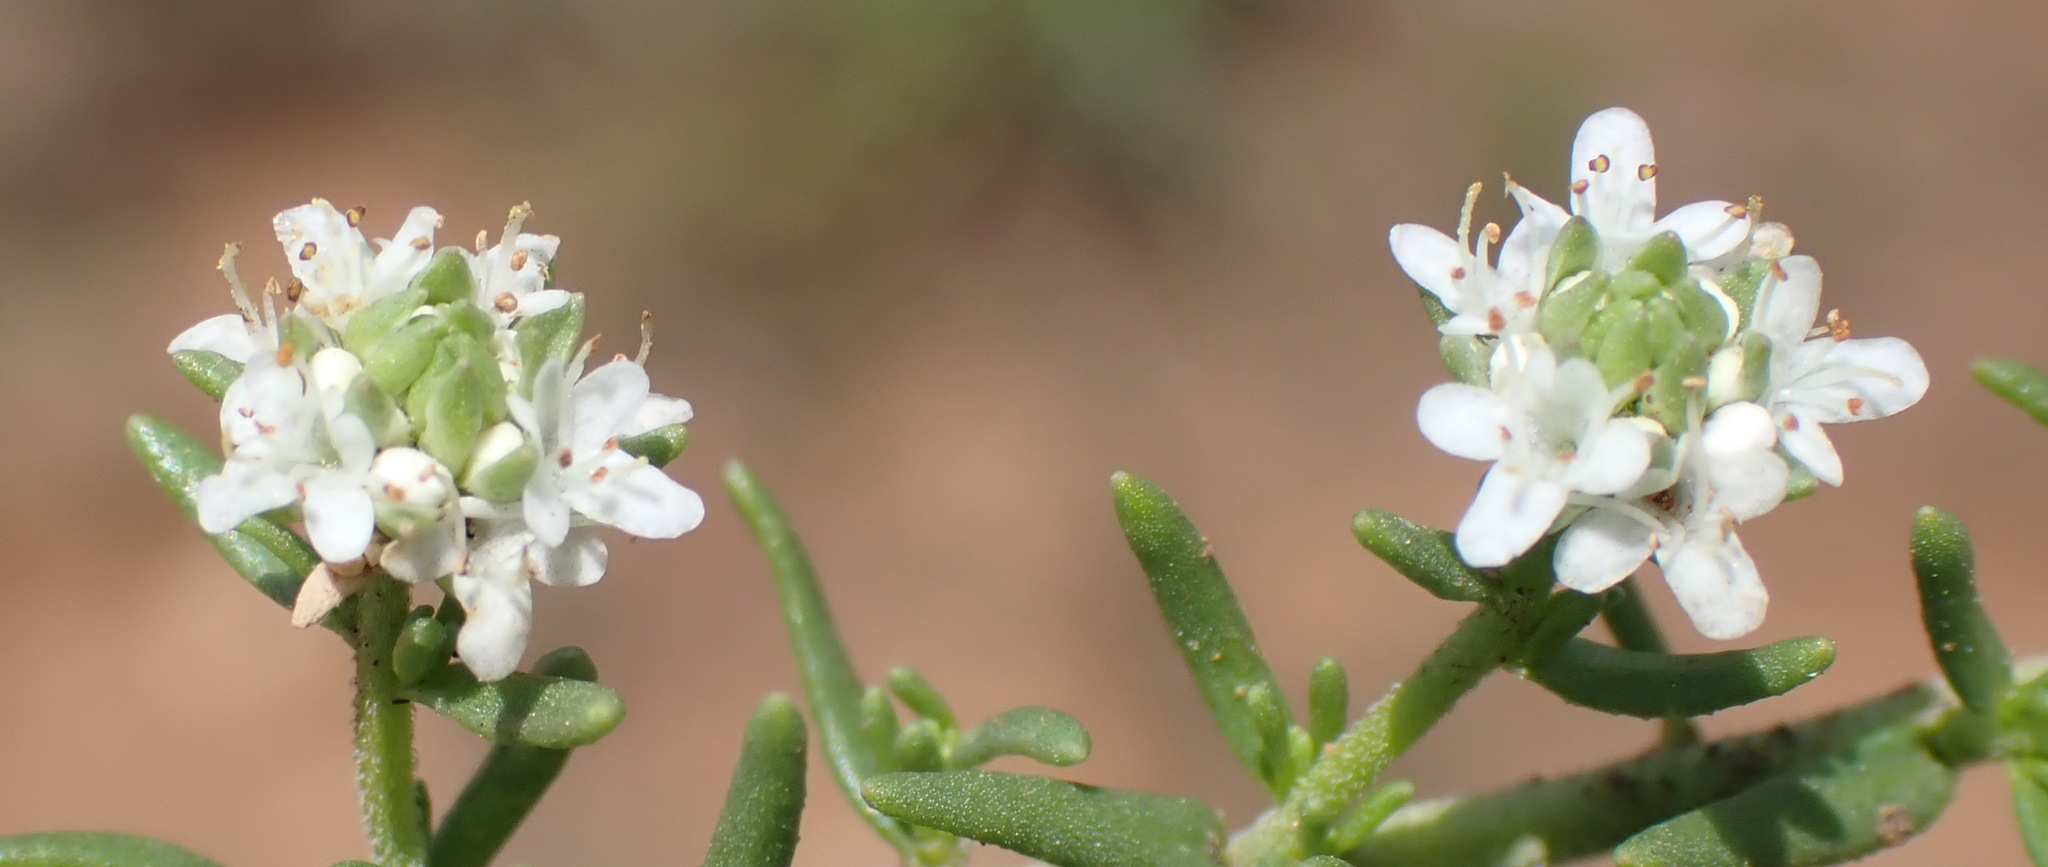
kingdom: Plantae
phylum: Tracheophyta
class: Magnoliopsida
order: Lamiales
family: Scrophulariaceae
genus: Selago
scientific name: Selago densiflora
